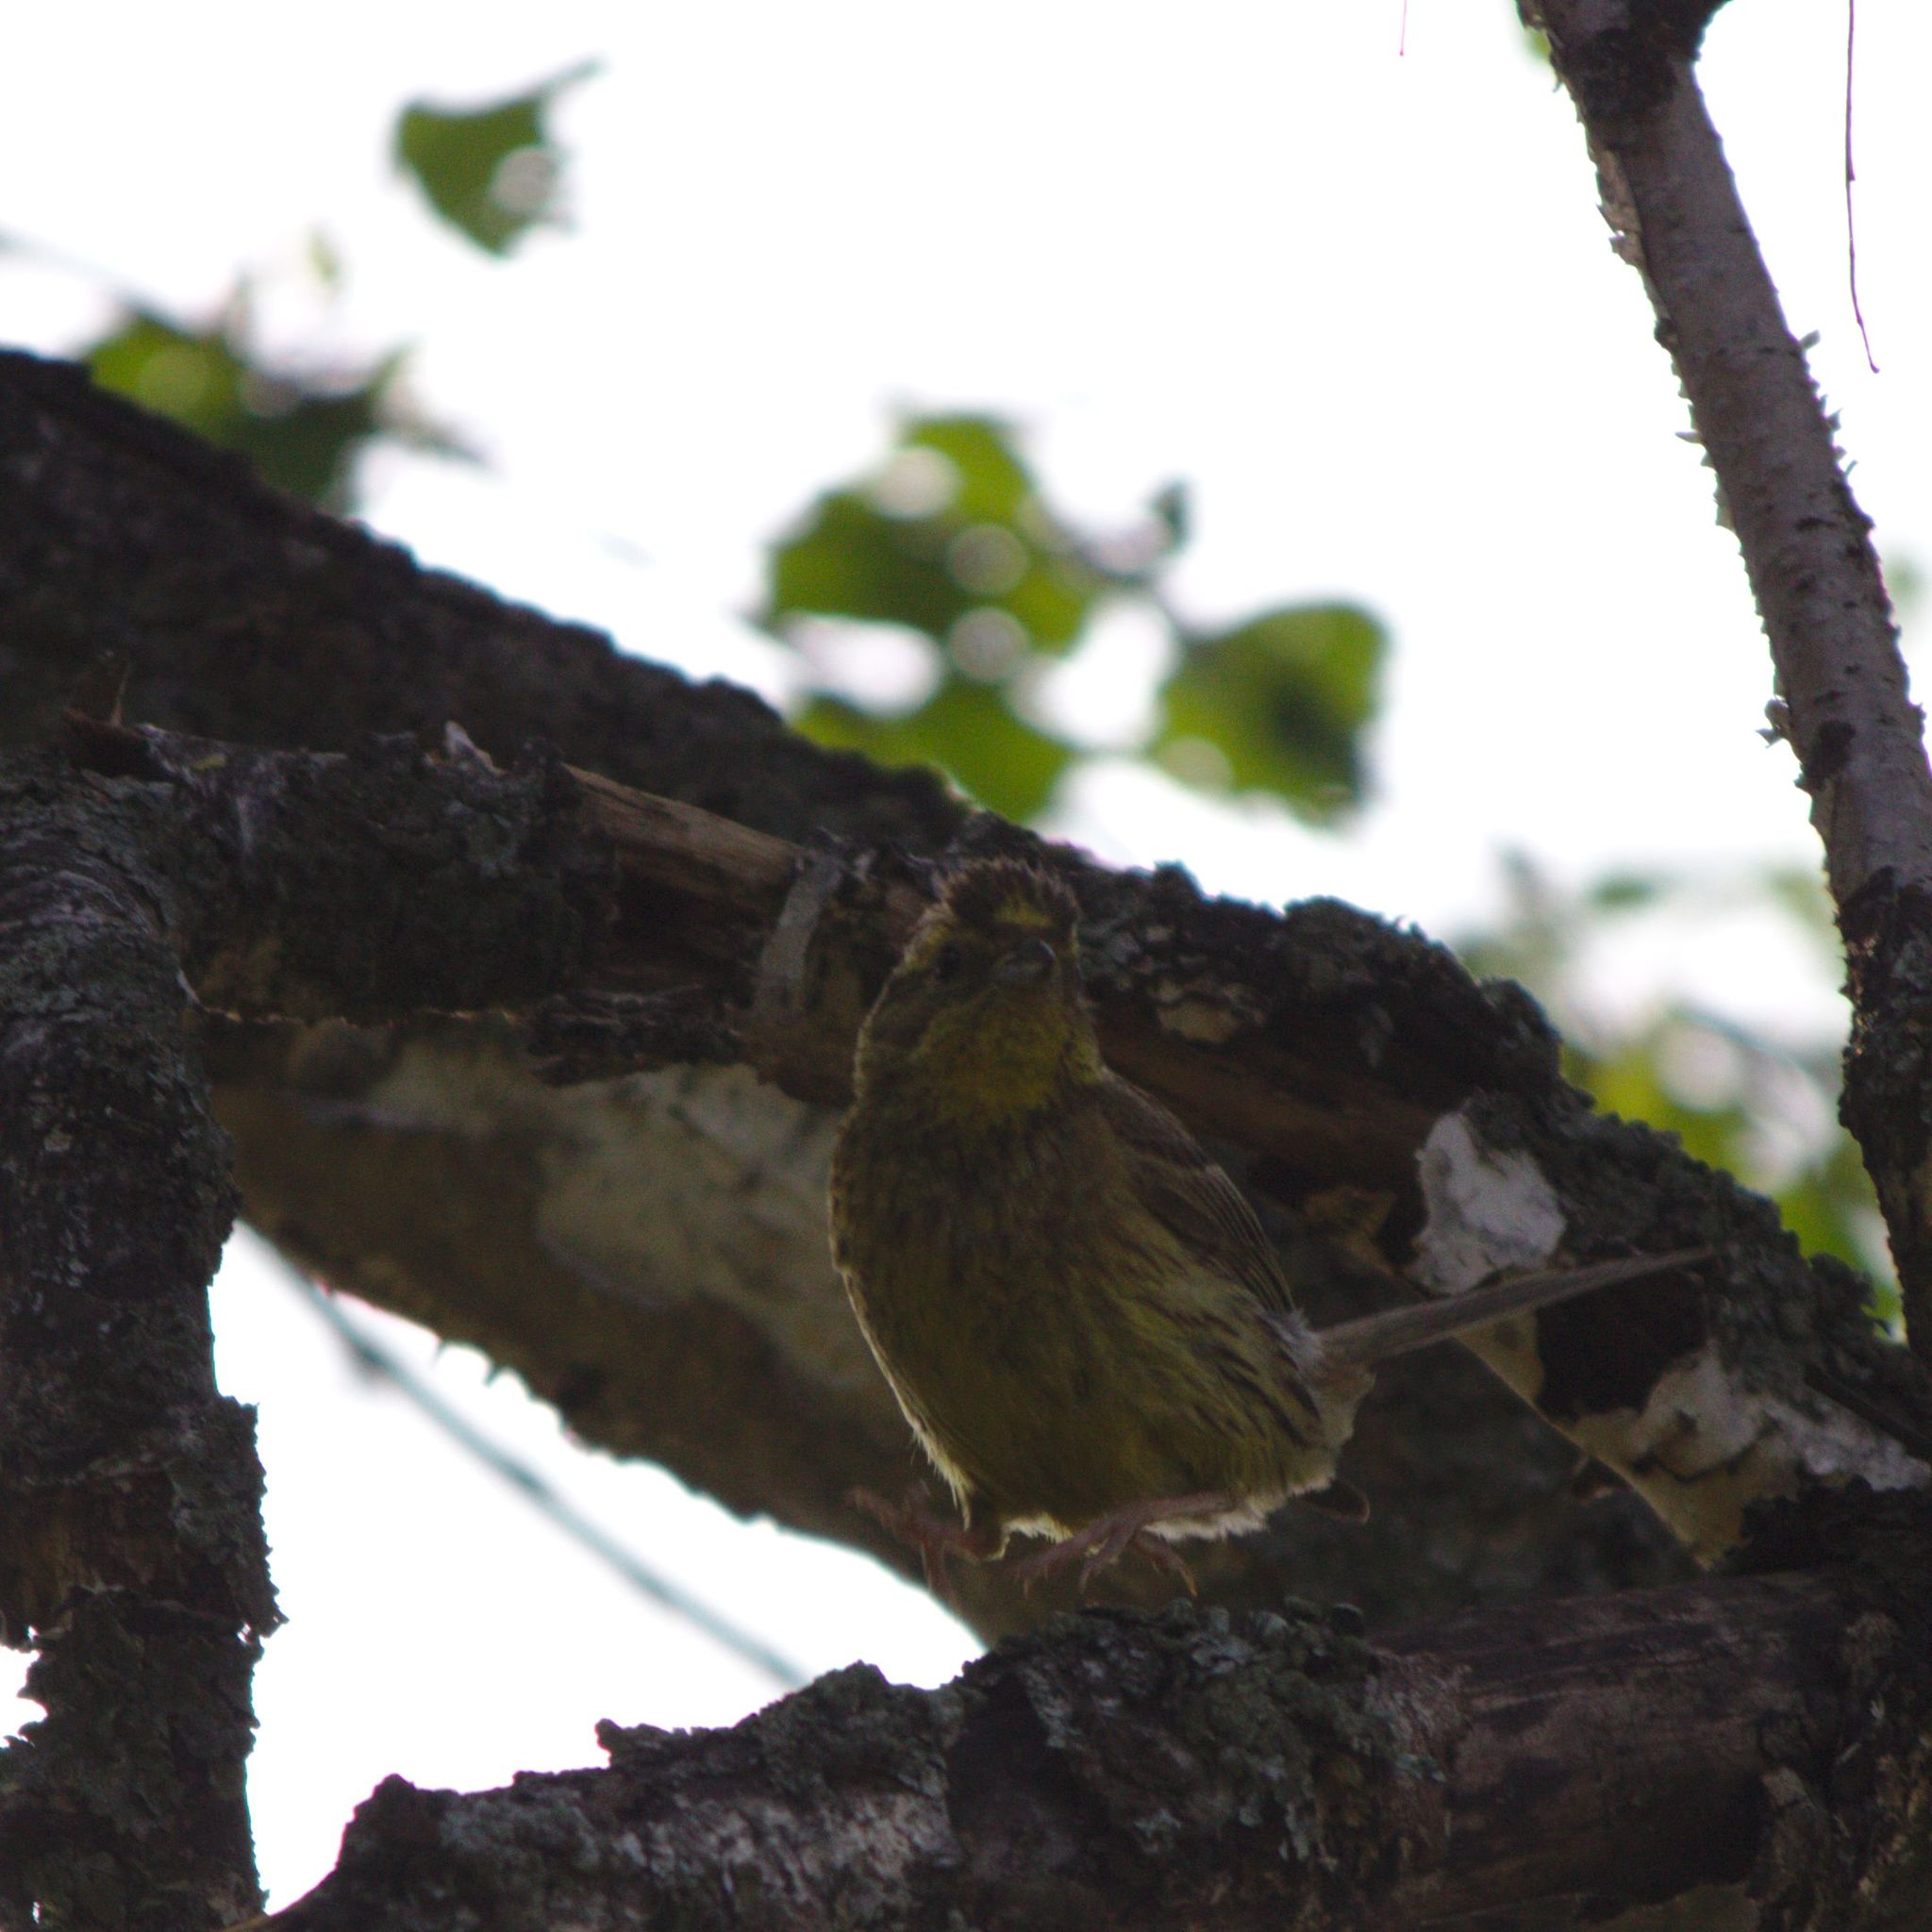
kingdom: Animalia
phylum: Chordata
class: Aves
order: Passeriformes
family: Emberizidae
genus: Emberiza
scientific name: Emberiza citrinella
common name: Yellowhammer
